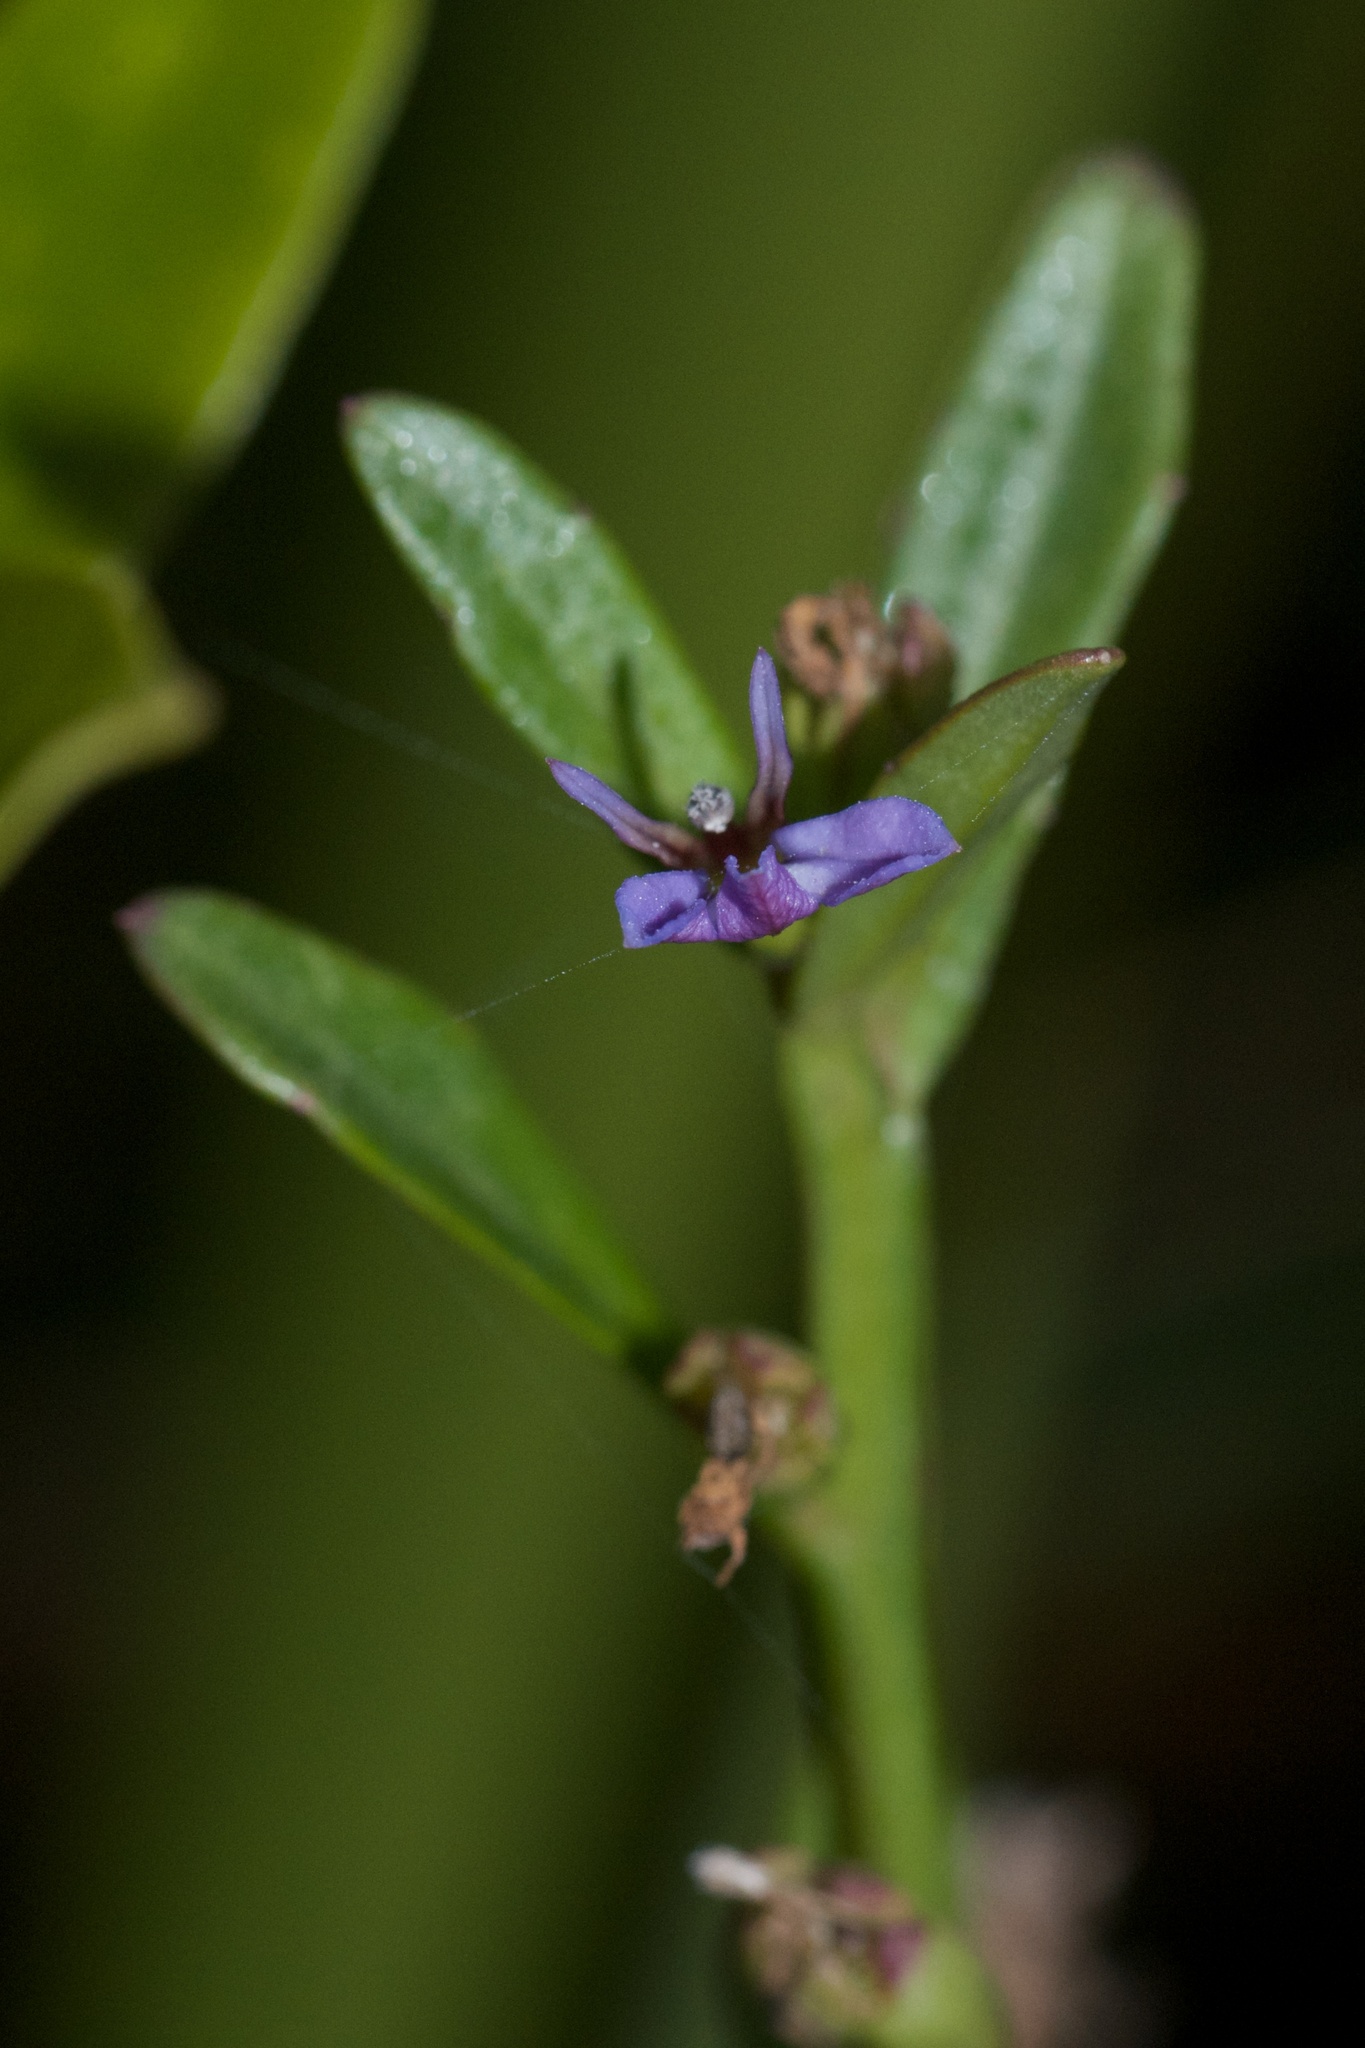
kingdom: Plantae
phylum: Tracheophyta
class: Magnoliopsida
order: Asterales
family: Campanulaceae
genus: Lobelia
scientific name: Lobelia anceps
